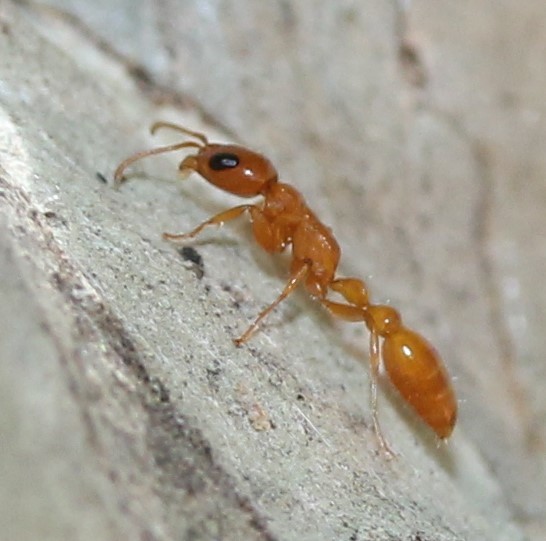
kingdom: Animalia
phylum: Arthropoda
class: Insecta
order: Hymenoptera
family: Formicidae
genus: Pseudomyrmex
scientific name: Pseudomyrmex apache
